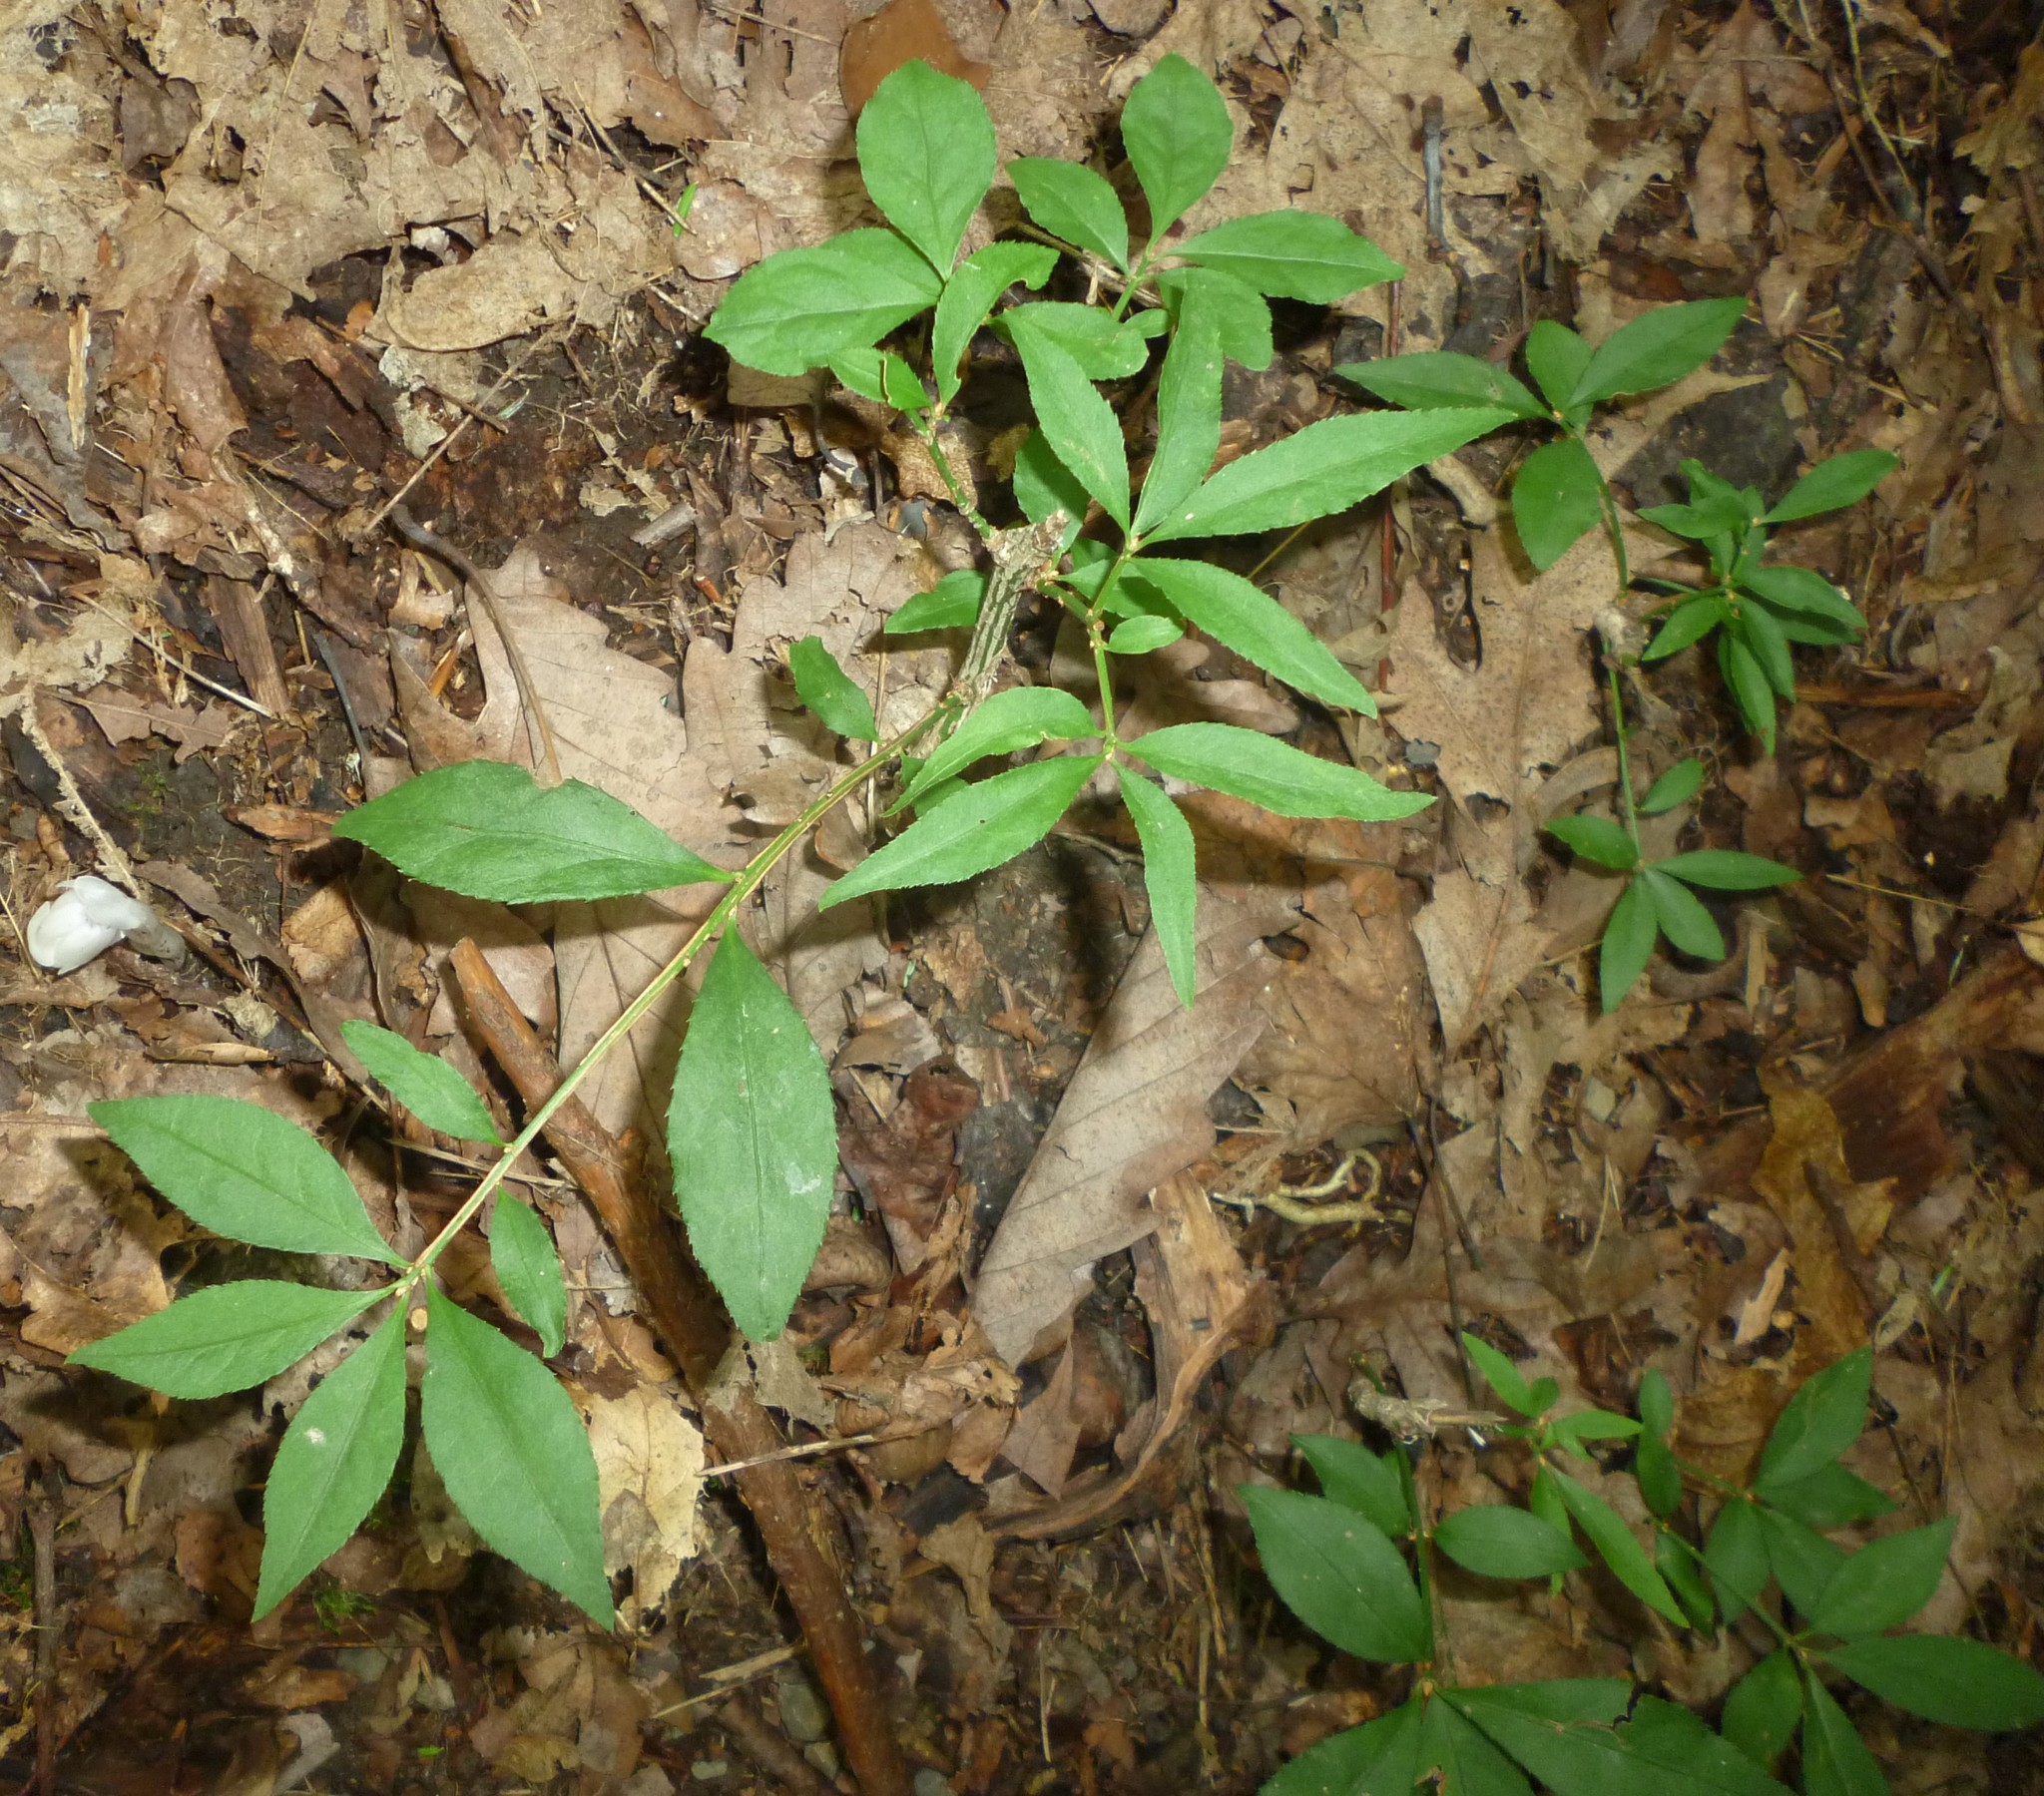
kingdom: Plantae
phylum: Tracheophyta
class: Magnoliopsida
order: Celastrales
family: Celastraceae
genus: Euonymus
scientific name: Euonymus alatus
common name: Winged euonymus
